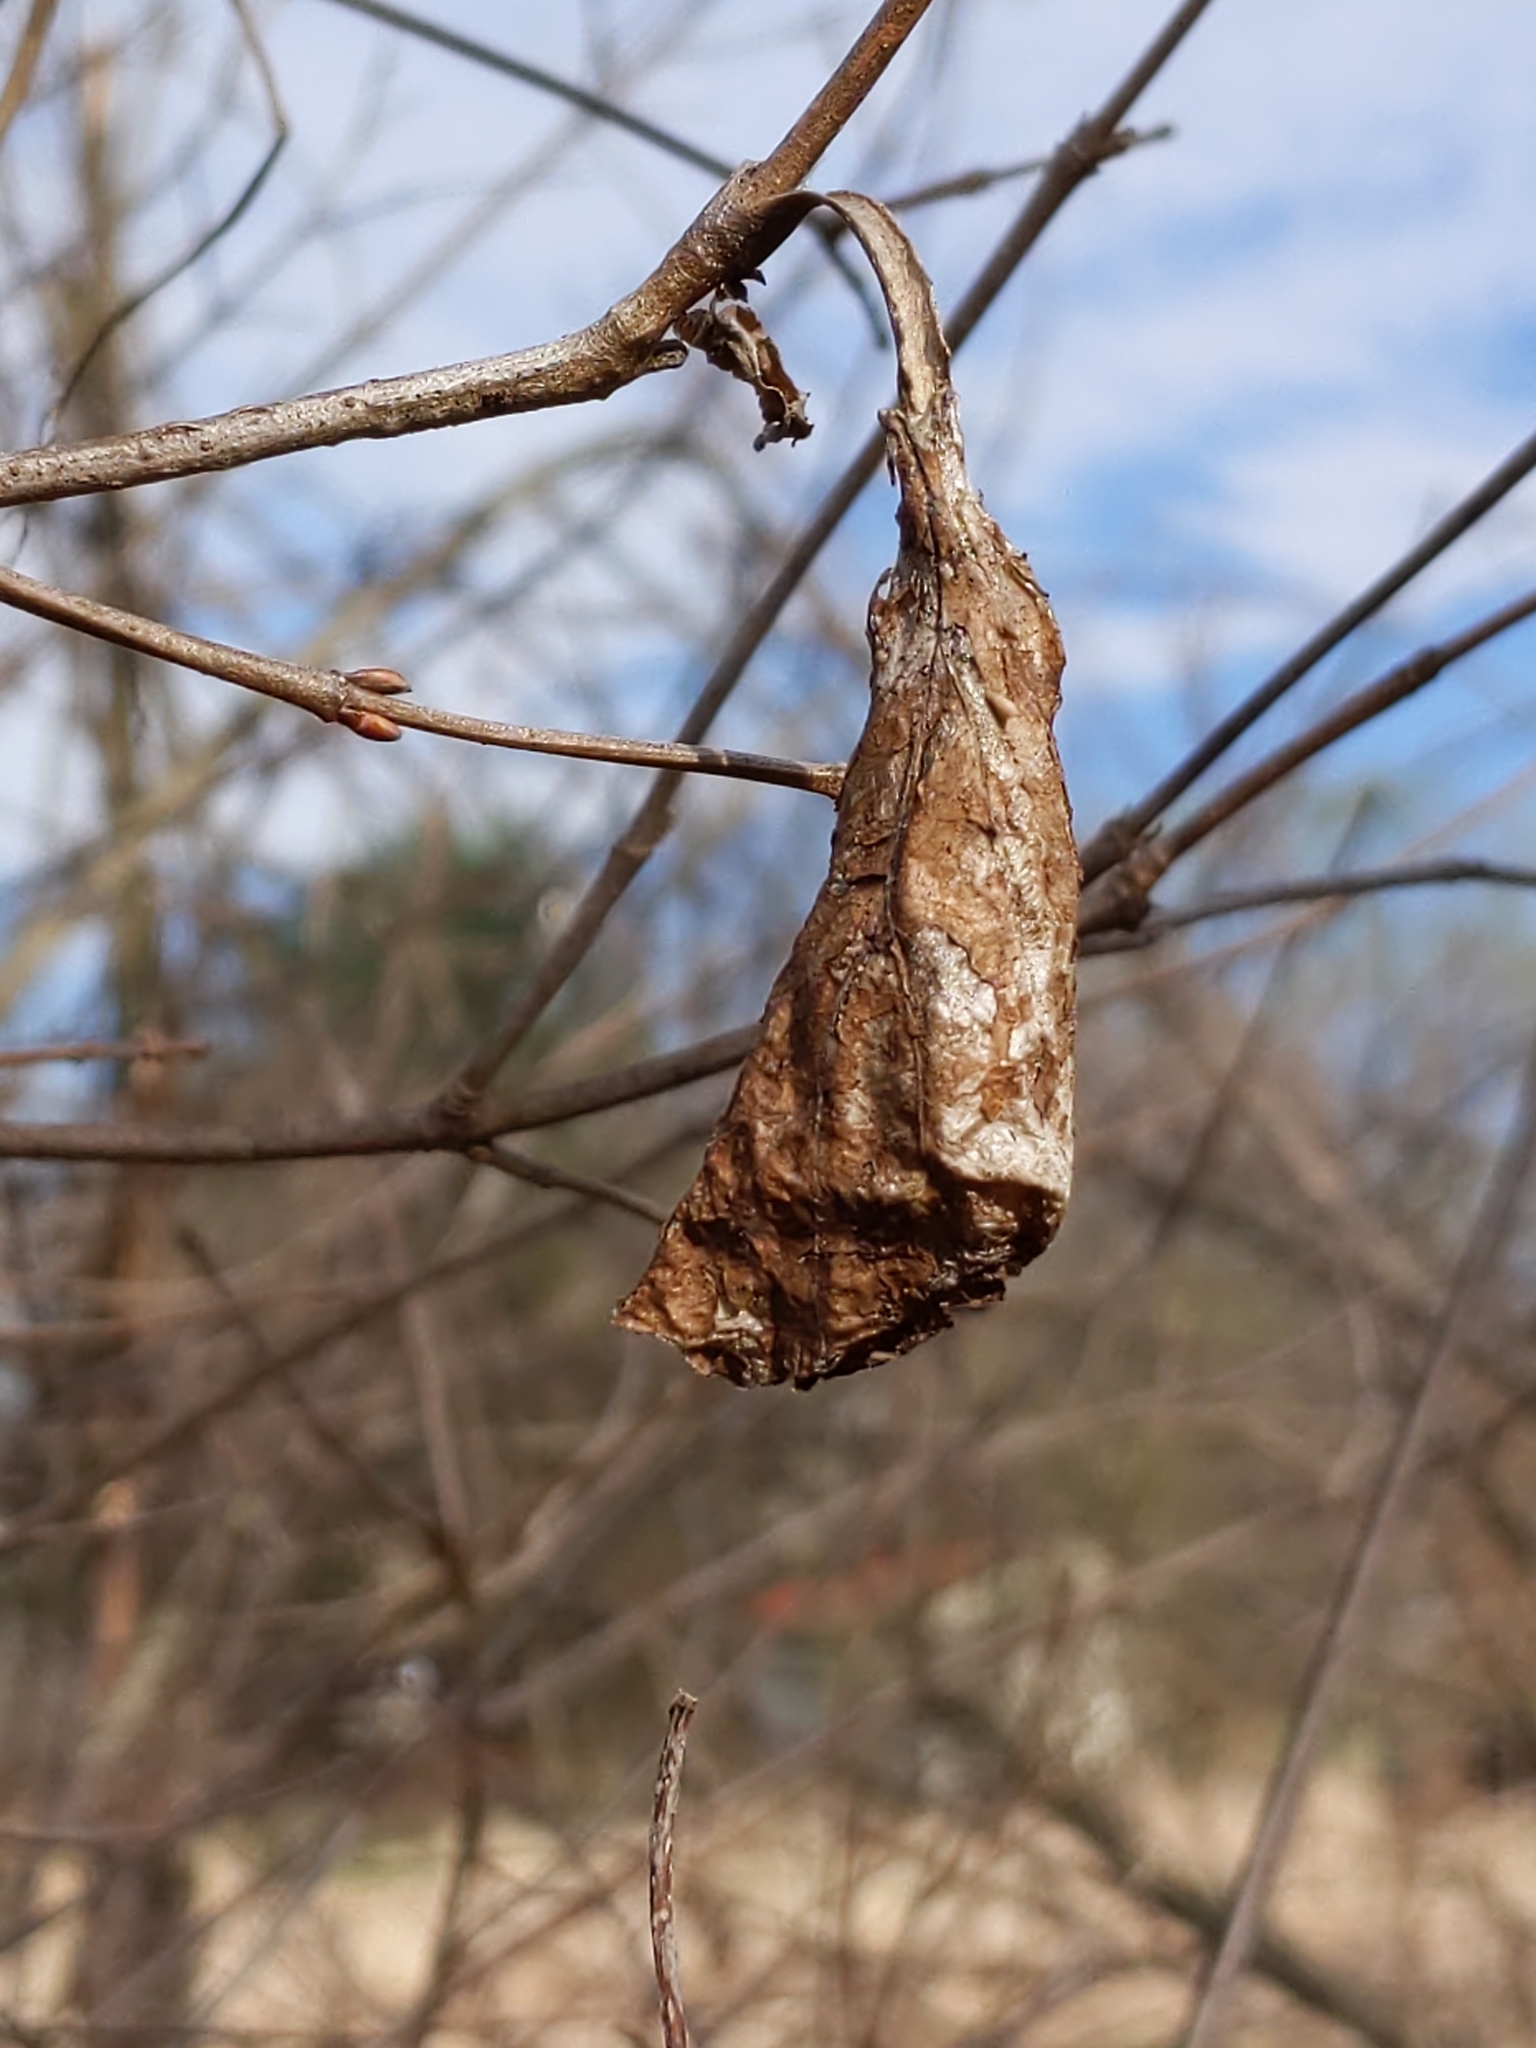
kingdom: Animalia
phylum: Arthropoda
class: Insecta
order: Lepidoptera
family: Saturniidae
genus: Callosamia
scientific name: Callosamia promethea
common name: Promethea silkmoth
